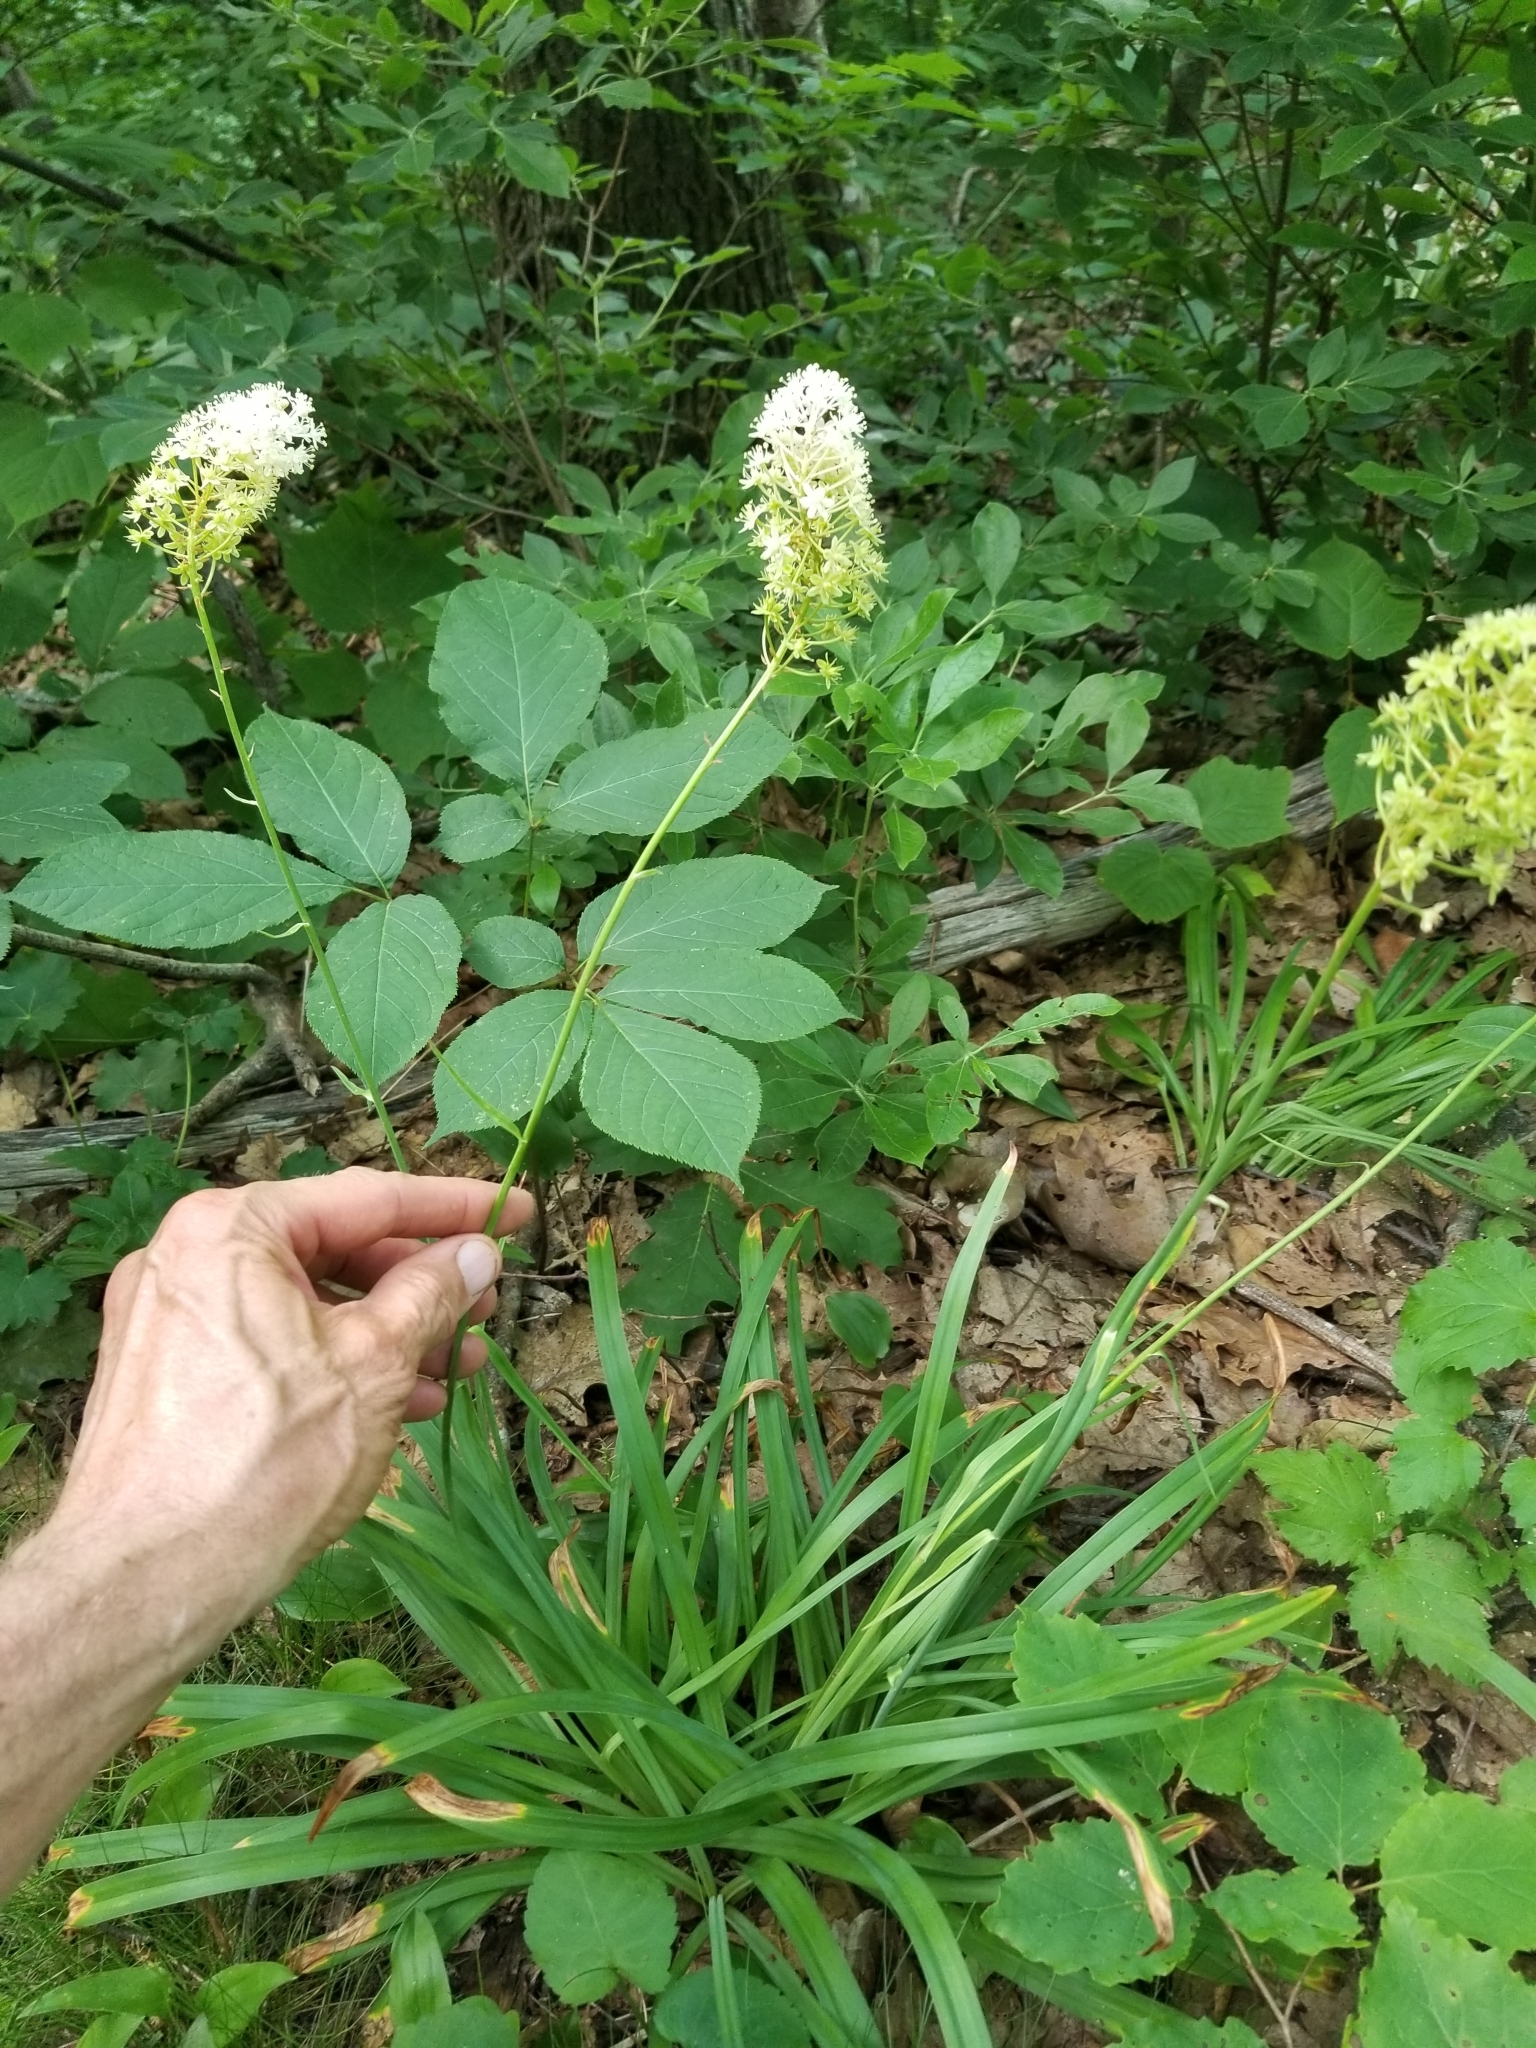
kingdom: Plantae
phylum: Tracheophyta
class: Liliopsida
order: Liliales
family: Melanthiaceae
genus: Amianthium
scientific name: Amianthium muscitoxicum
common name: Fly-poison
